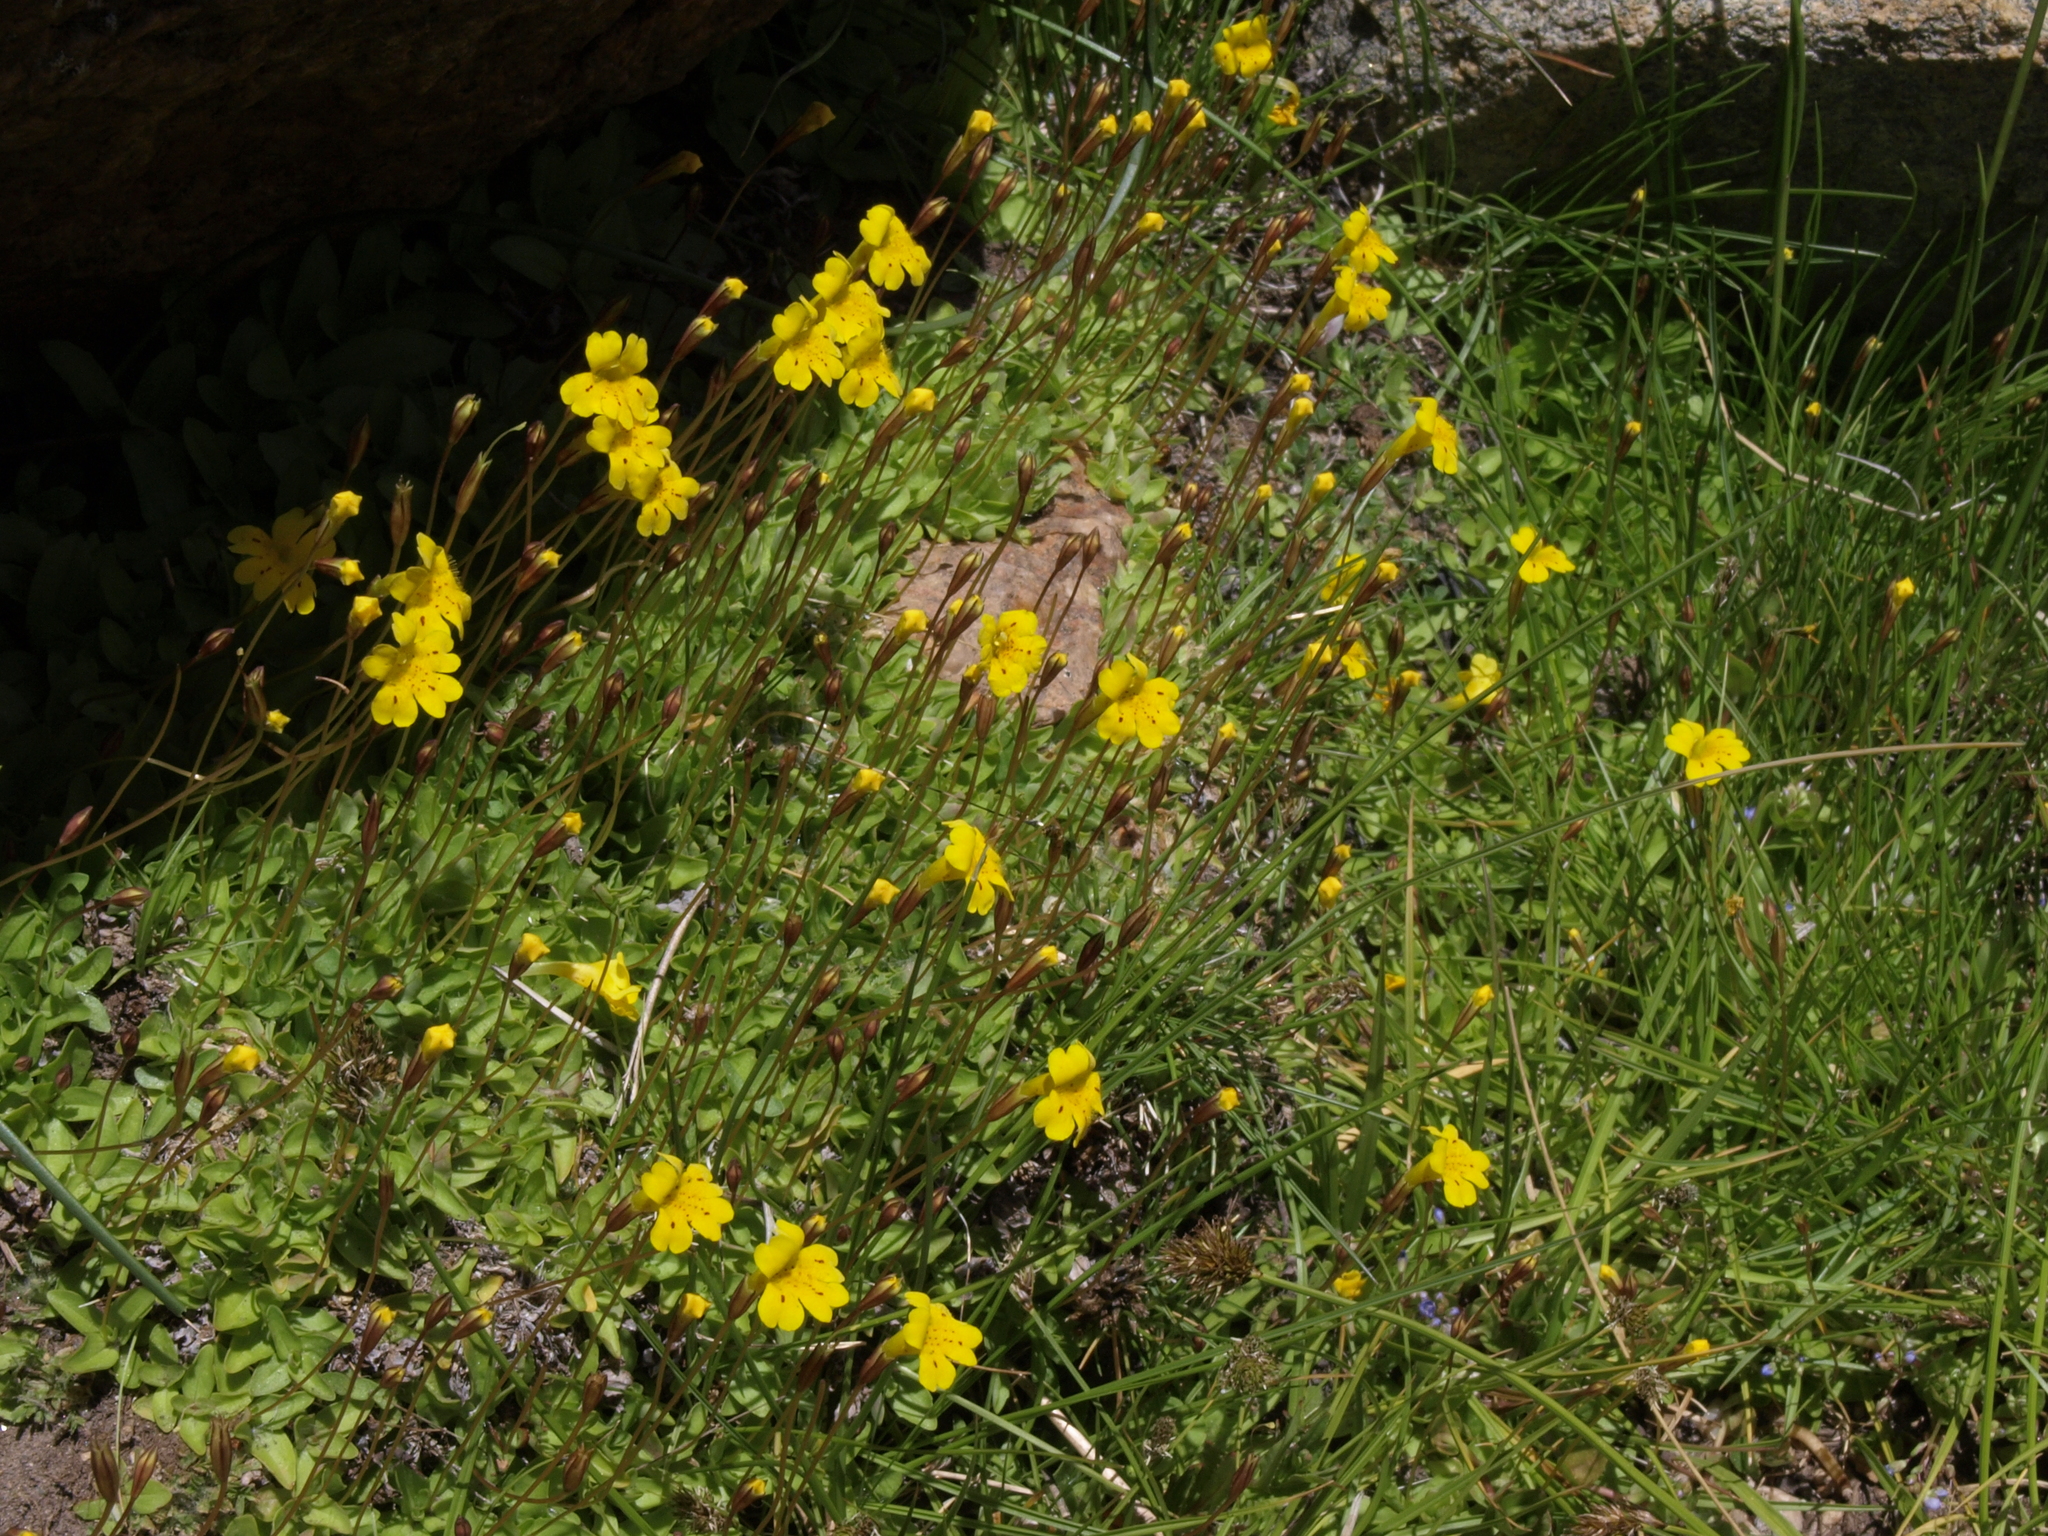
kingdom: Plantae
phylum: Tracheophyta
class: Magnoliopsida
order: Lamiales
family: Phrymaceae
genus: Erythranthe
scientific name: Erythranthe primuloides
